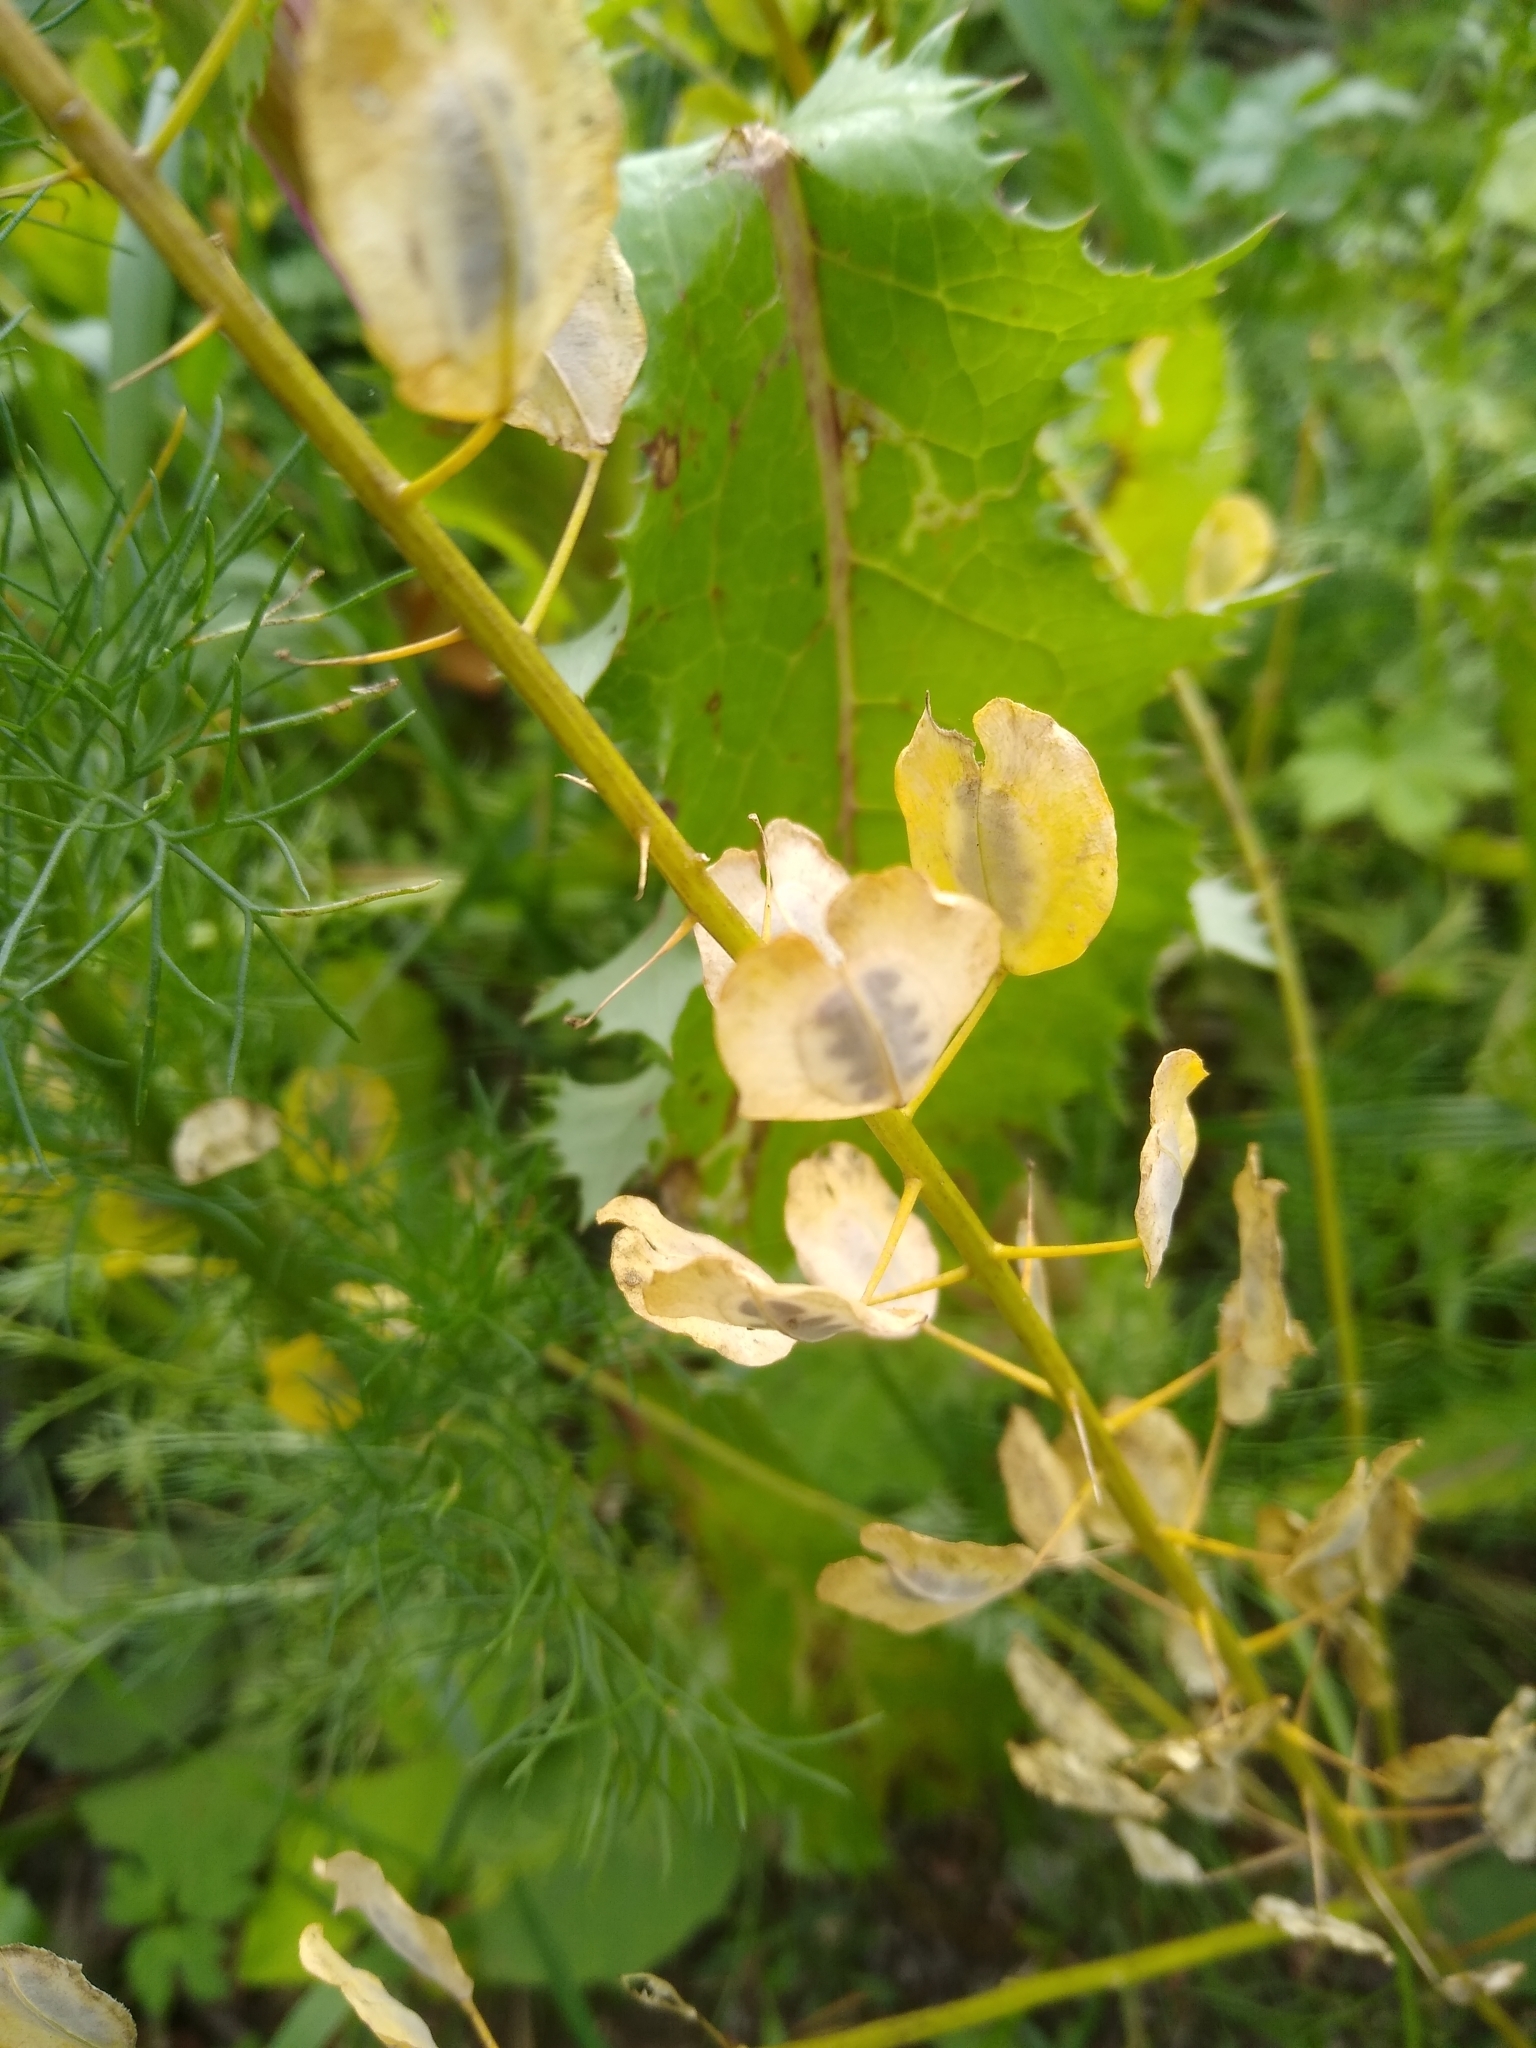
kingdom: Plantae
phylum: Tracheophyta
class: Magnoliopsida
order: Brassicales
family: Brassicaceae
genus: Thlaspi
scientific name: Thlaspi arvense
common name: Field pennycress
